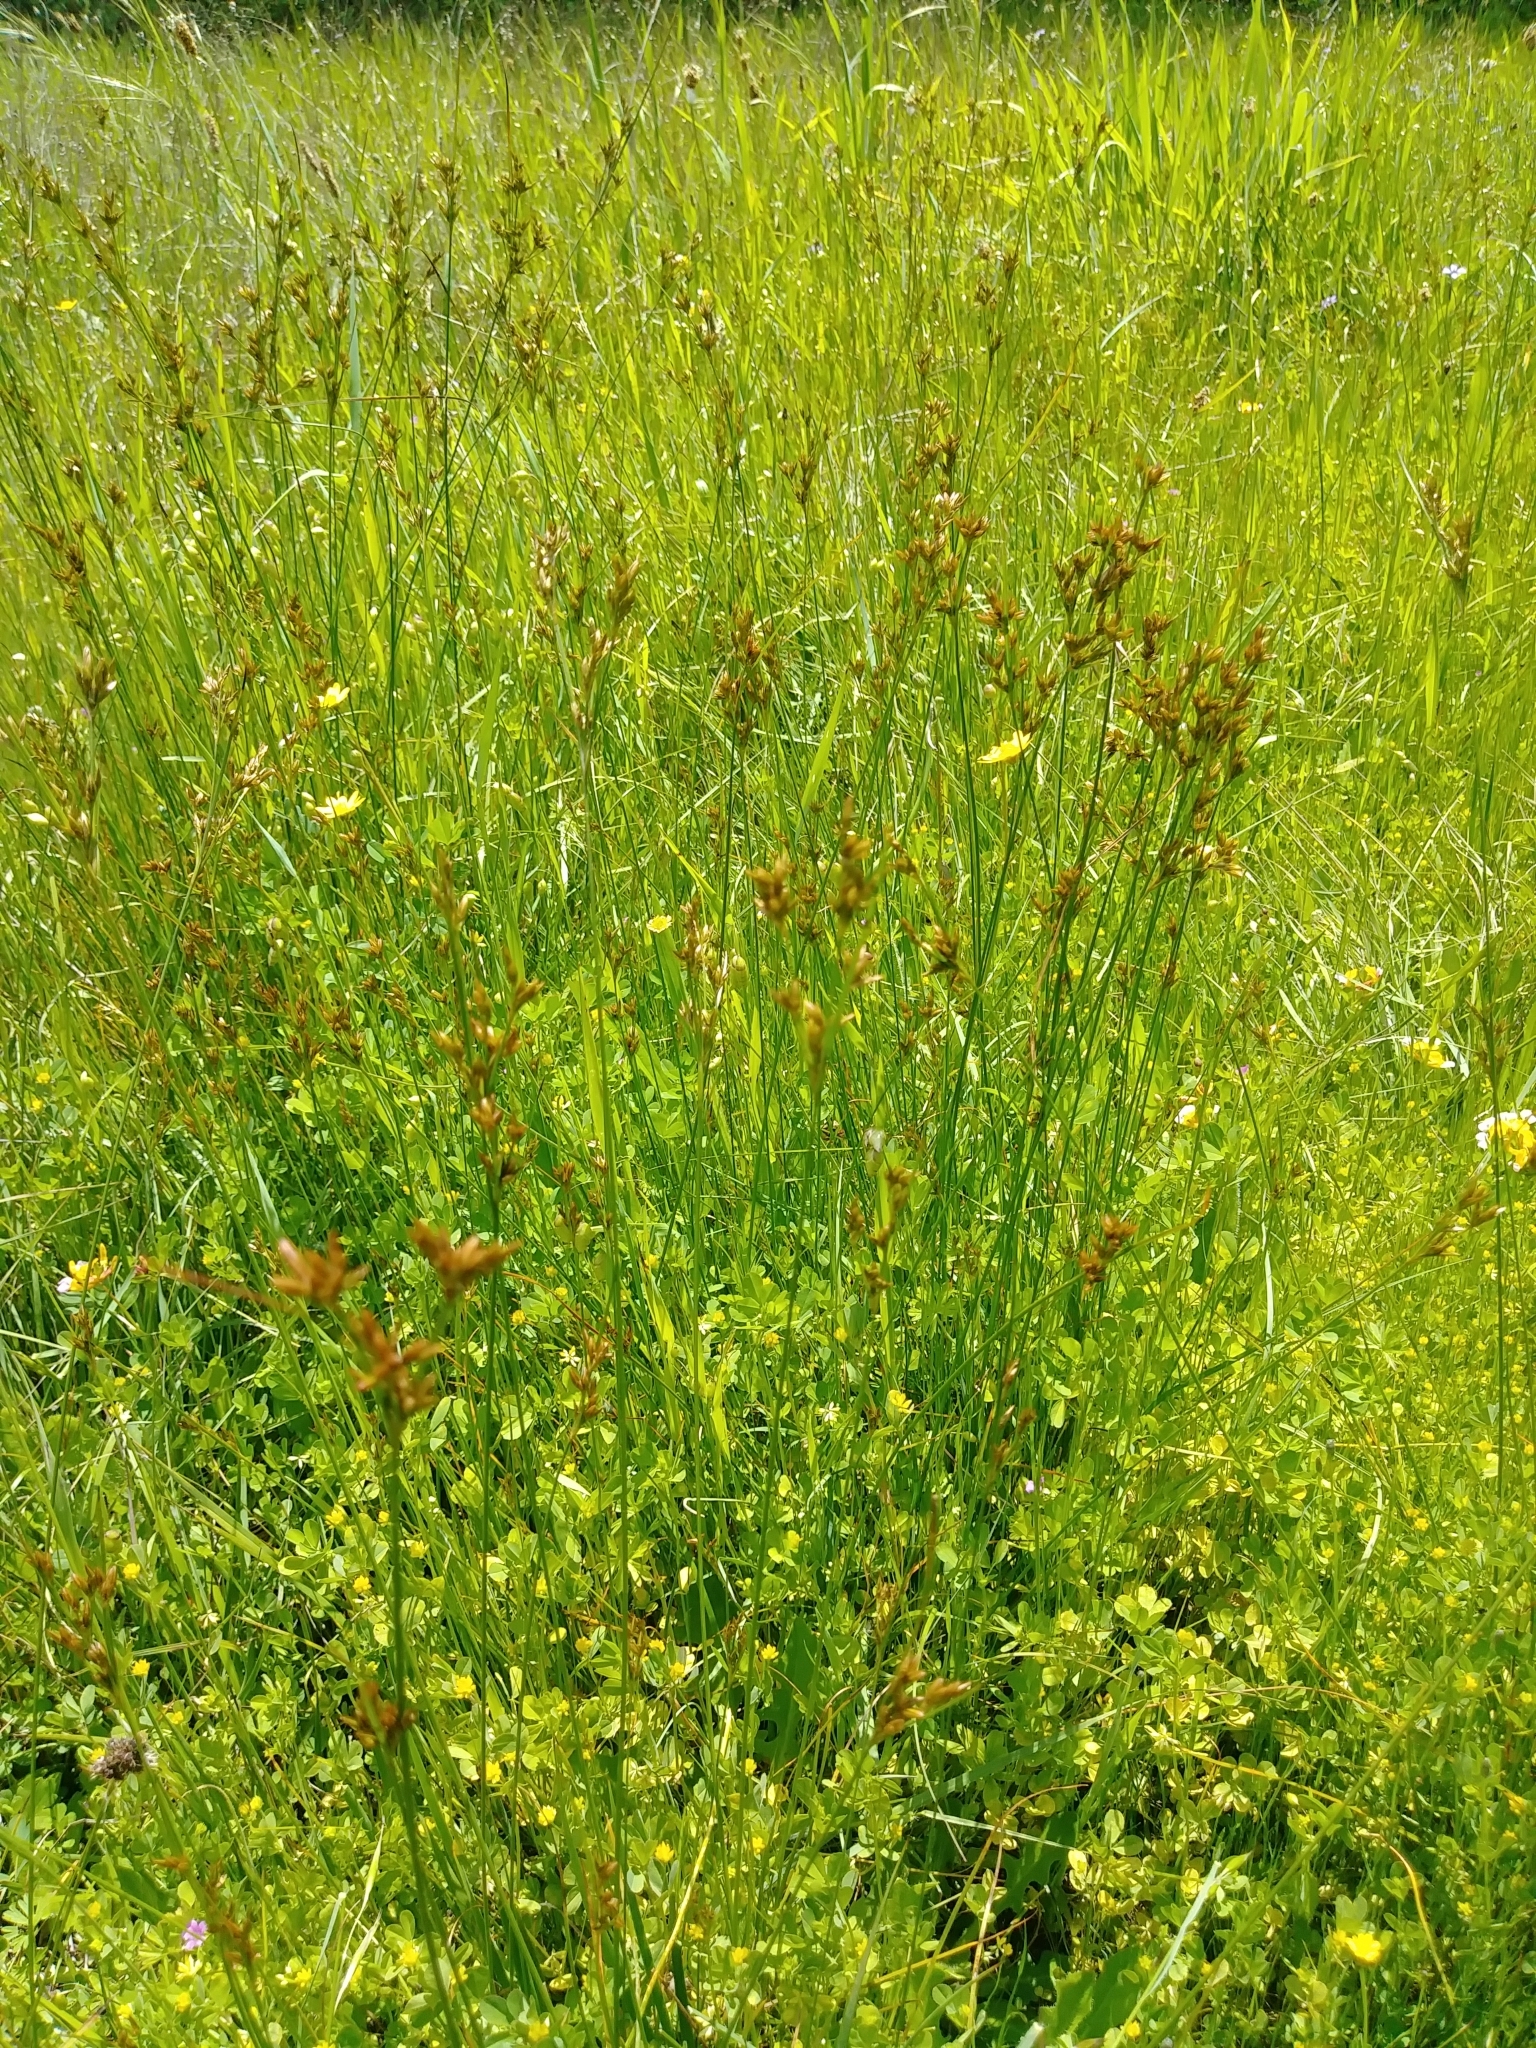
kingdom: Plantae
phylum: Tracheophyta
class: Liliopsida
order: Poales
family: Juncaceae
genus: Juncus
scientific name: Juncus occidentalis
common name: Western rush
